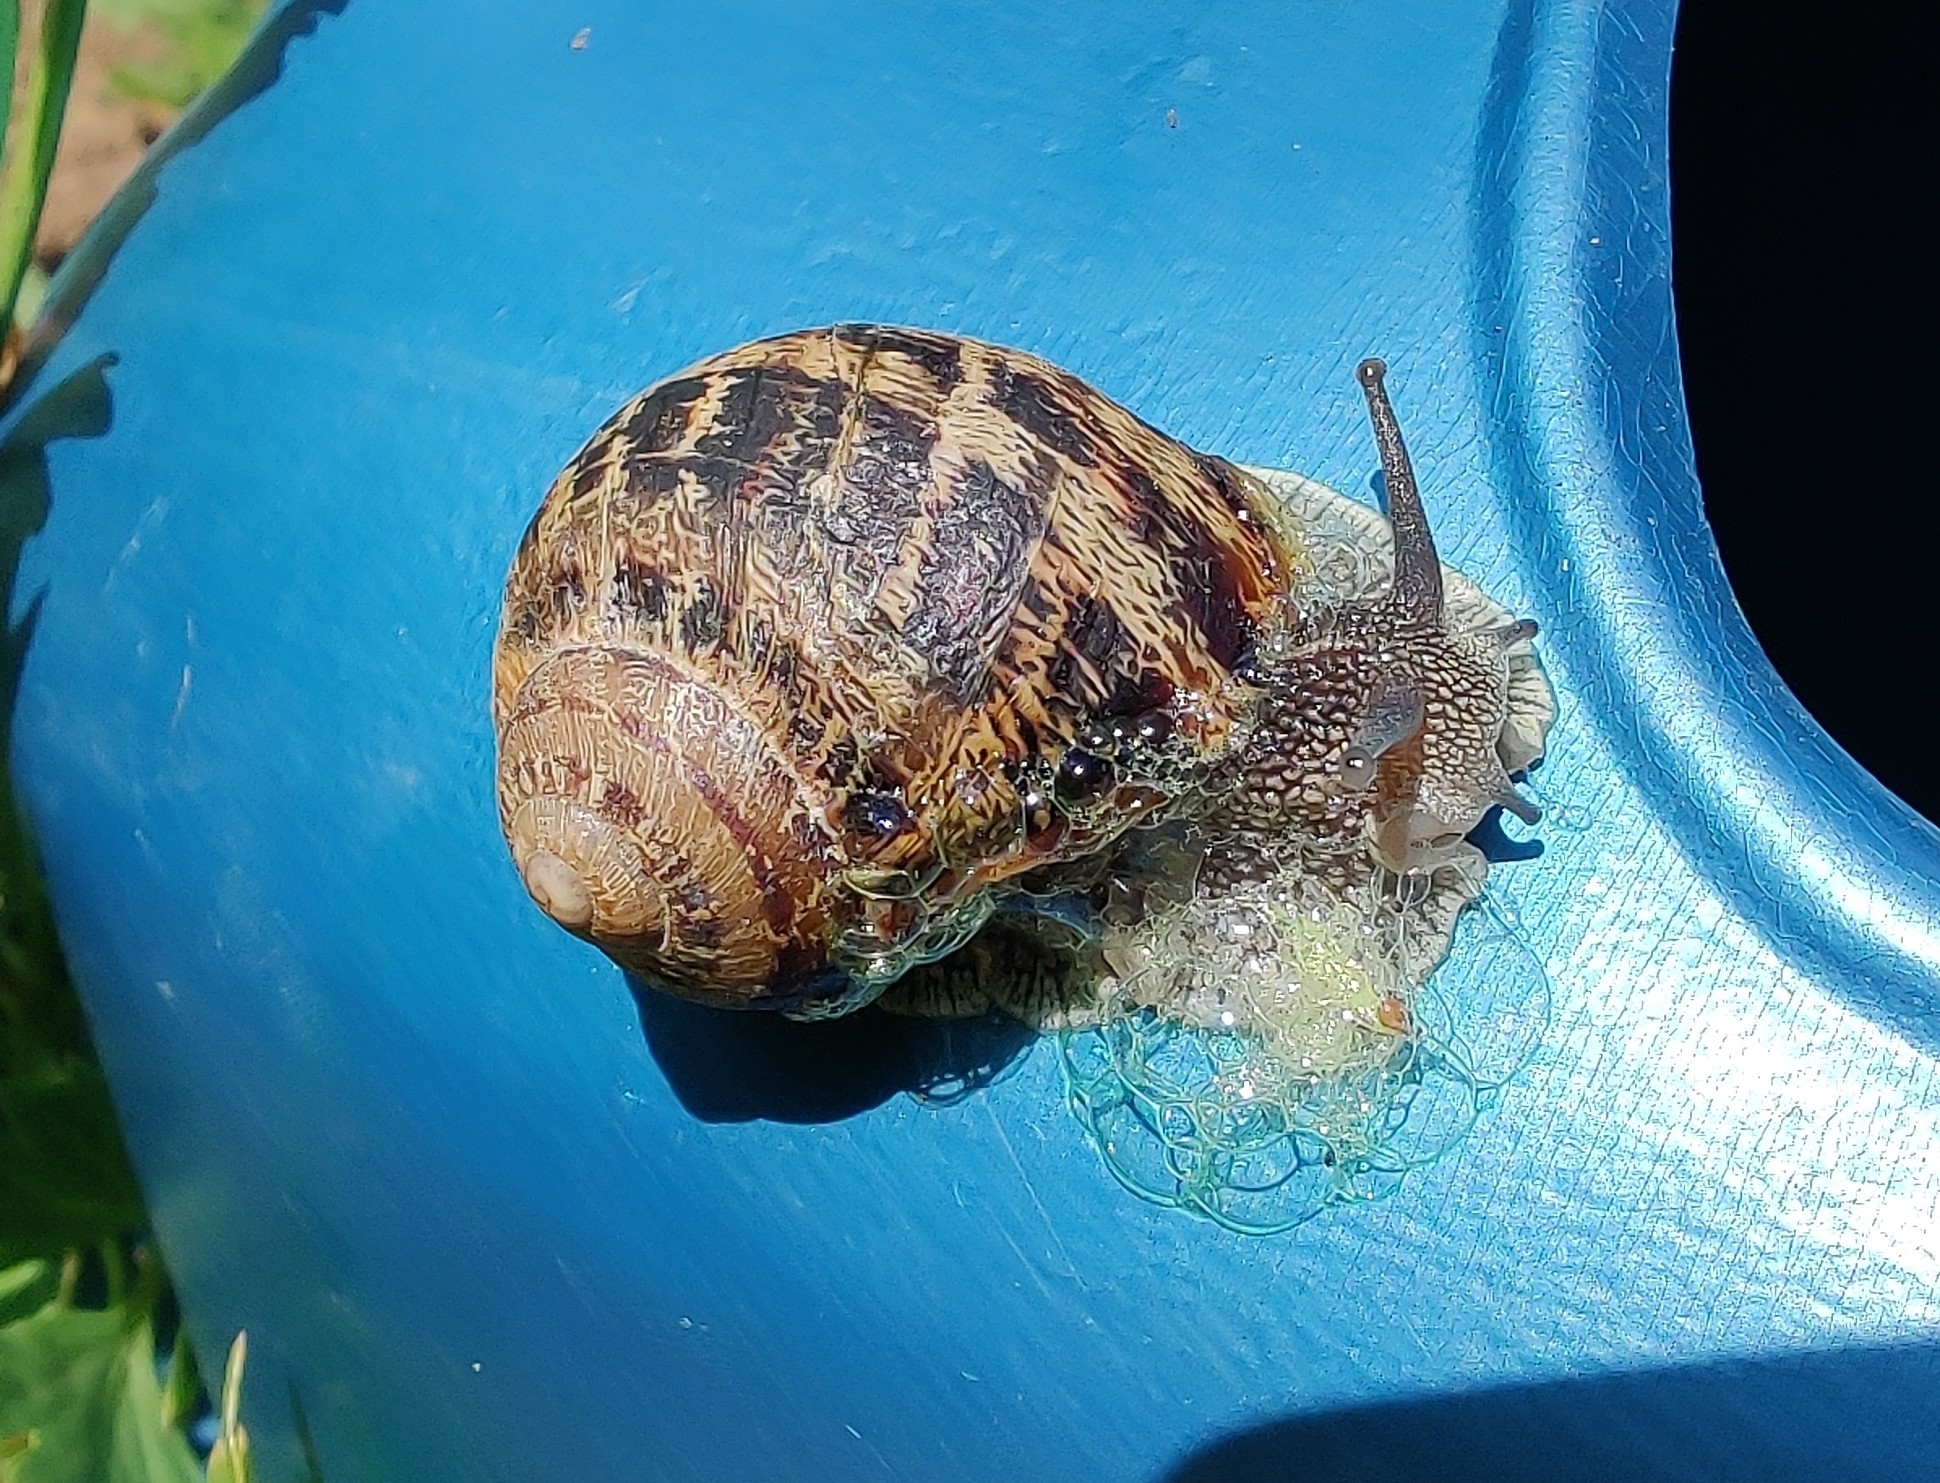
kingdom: Animalia
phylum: Mollusca
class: Gastropoda
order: Stylommatophora
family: Helicidae
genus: Cornu
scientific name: Cornu aspersum
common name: Brown garden snail
